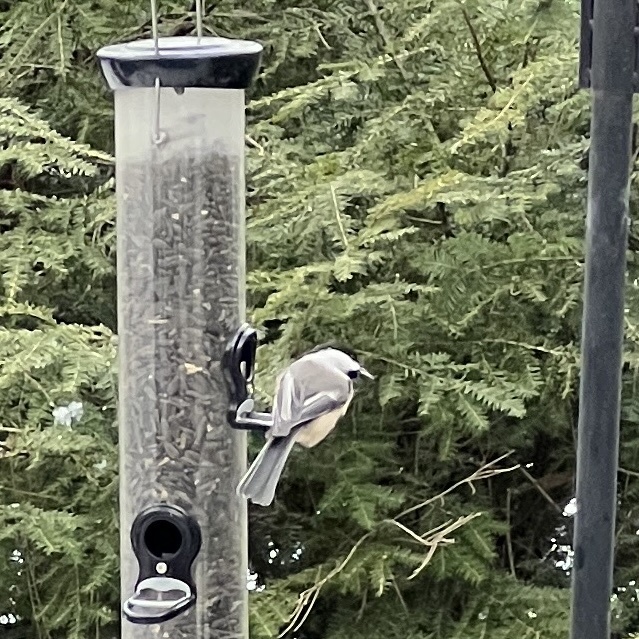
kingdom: Animalia
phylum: Chordata
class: Aves
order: Passeriformes
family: Paridae
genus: Poecile
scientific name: Poecile atricapillus
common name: Black-capped chickadee
